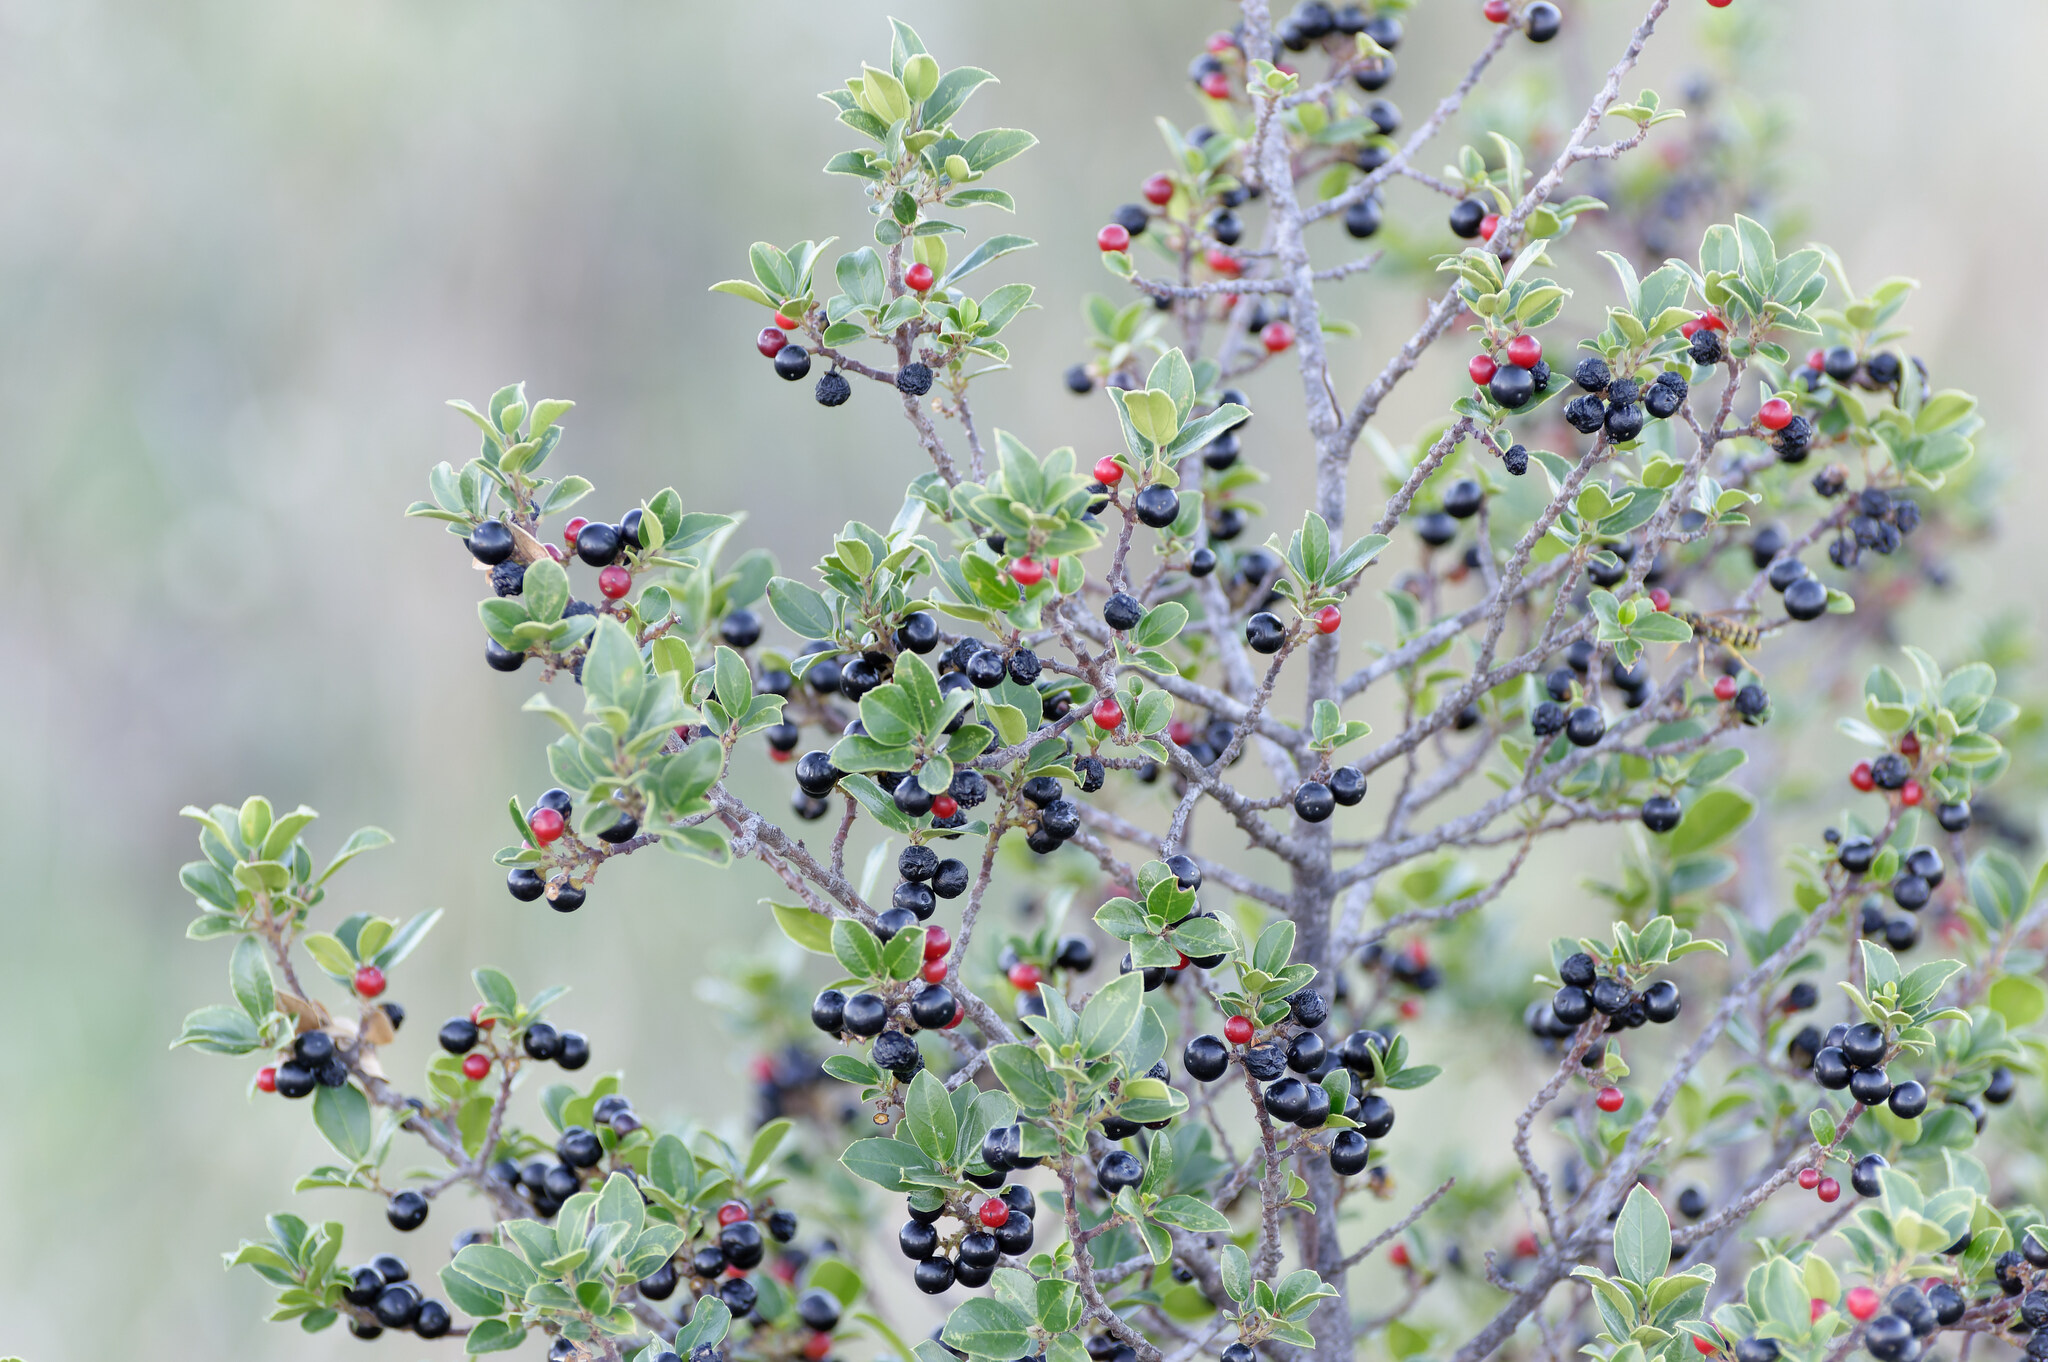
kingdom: Plantae
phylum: Tracheophyta
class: Magnoliopsida
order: Rosales
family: Rhamnaceae
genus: Rhamnus
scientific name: Rhamnus alaternus
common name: Mediterranean buckthorn
